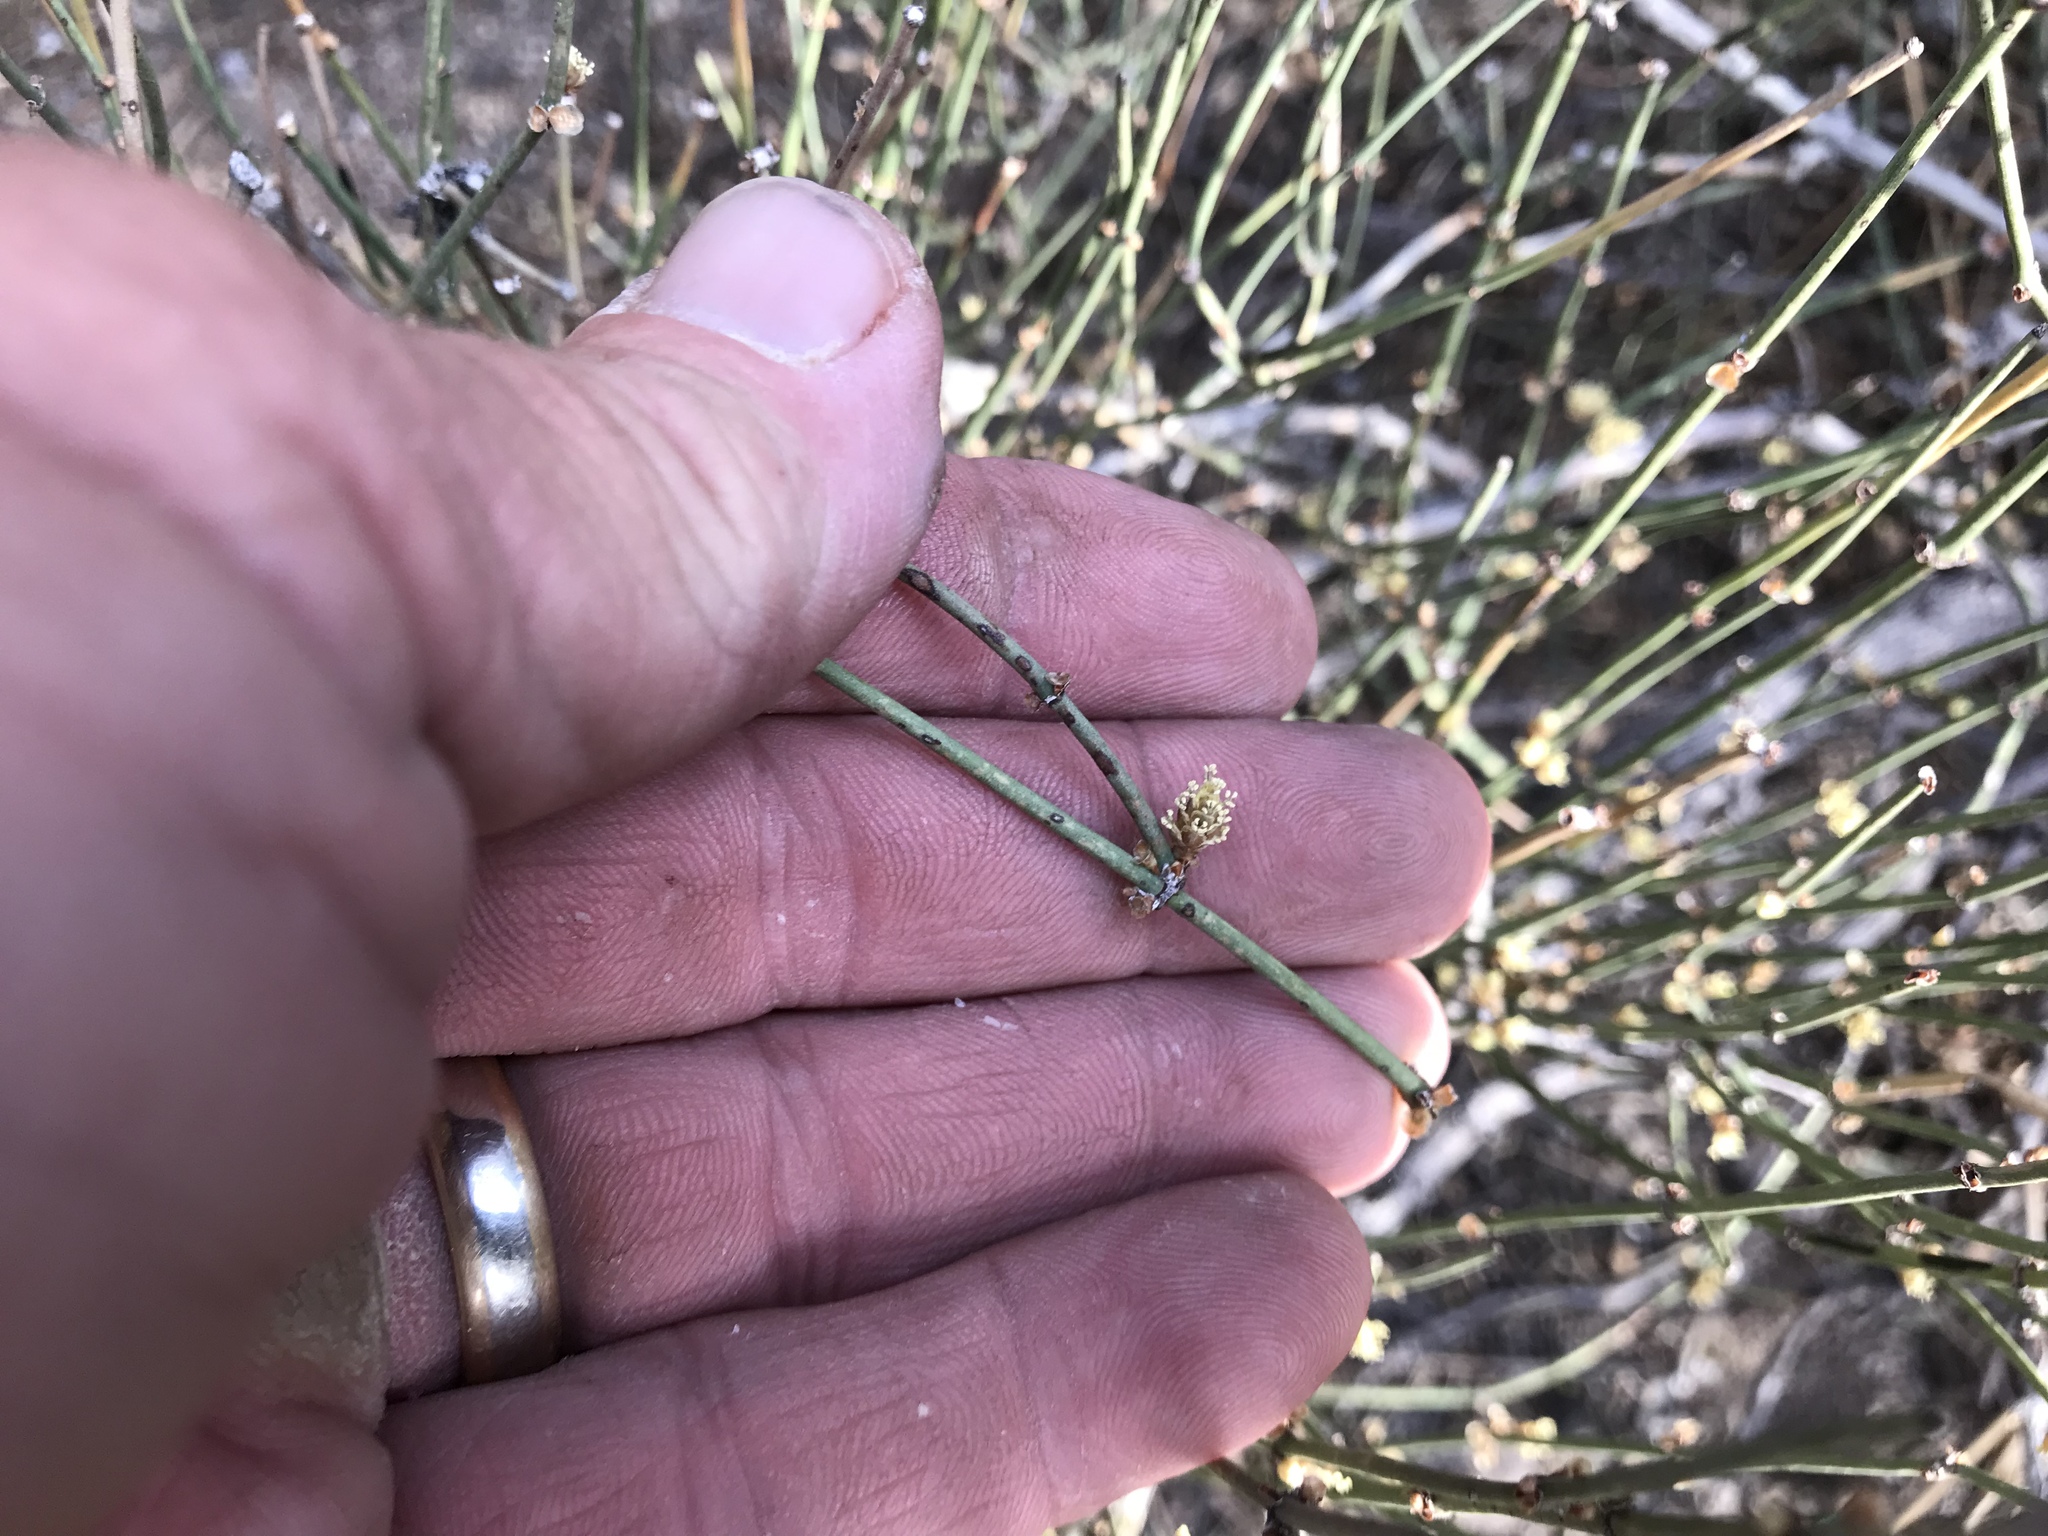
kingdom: Plantae
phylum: Tracheophyta
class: Gnetopsida
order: Ephedrales
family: Ephedraceae
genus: Ephedra
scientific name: Ephedra trifurca
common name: Mexican-tea
